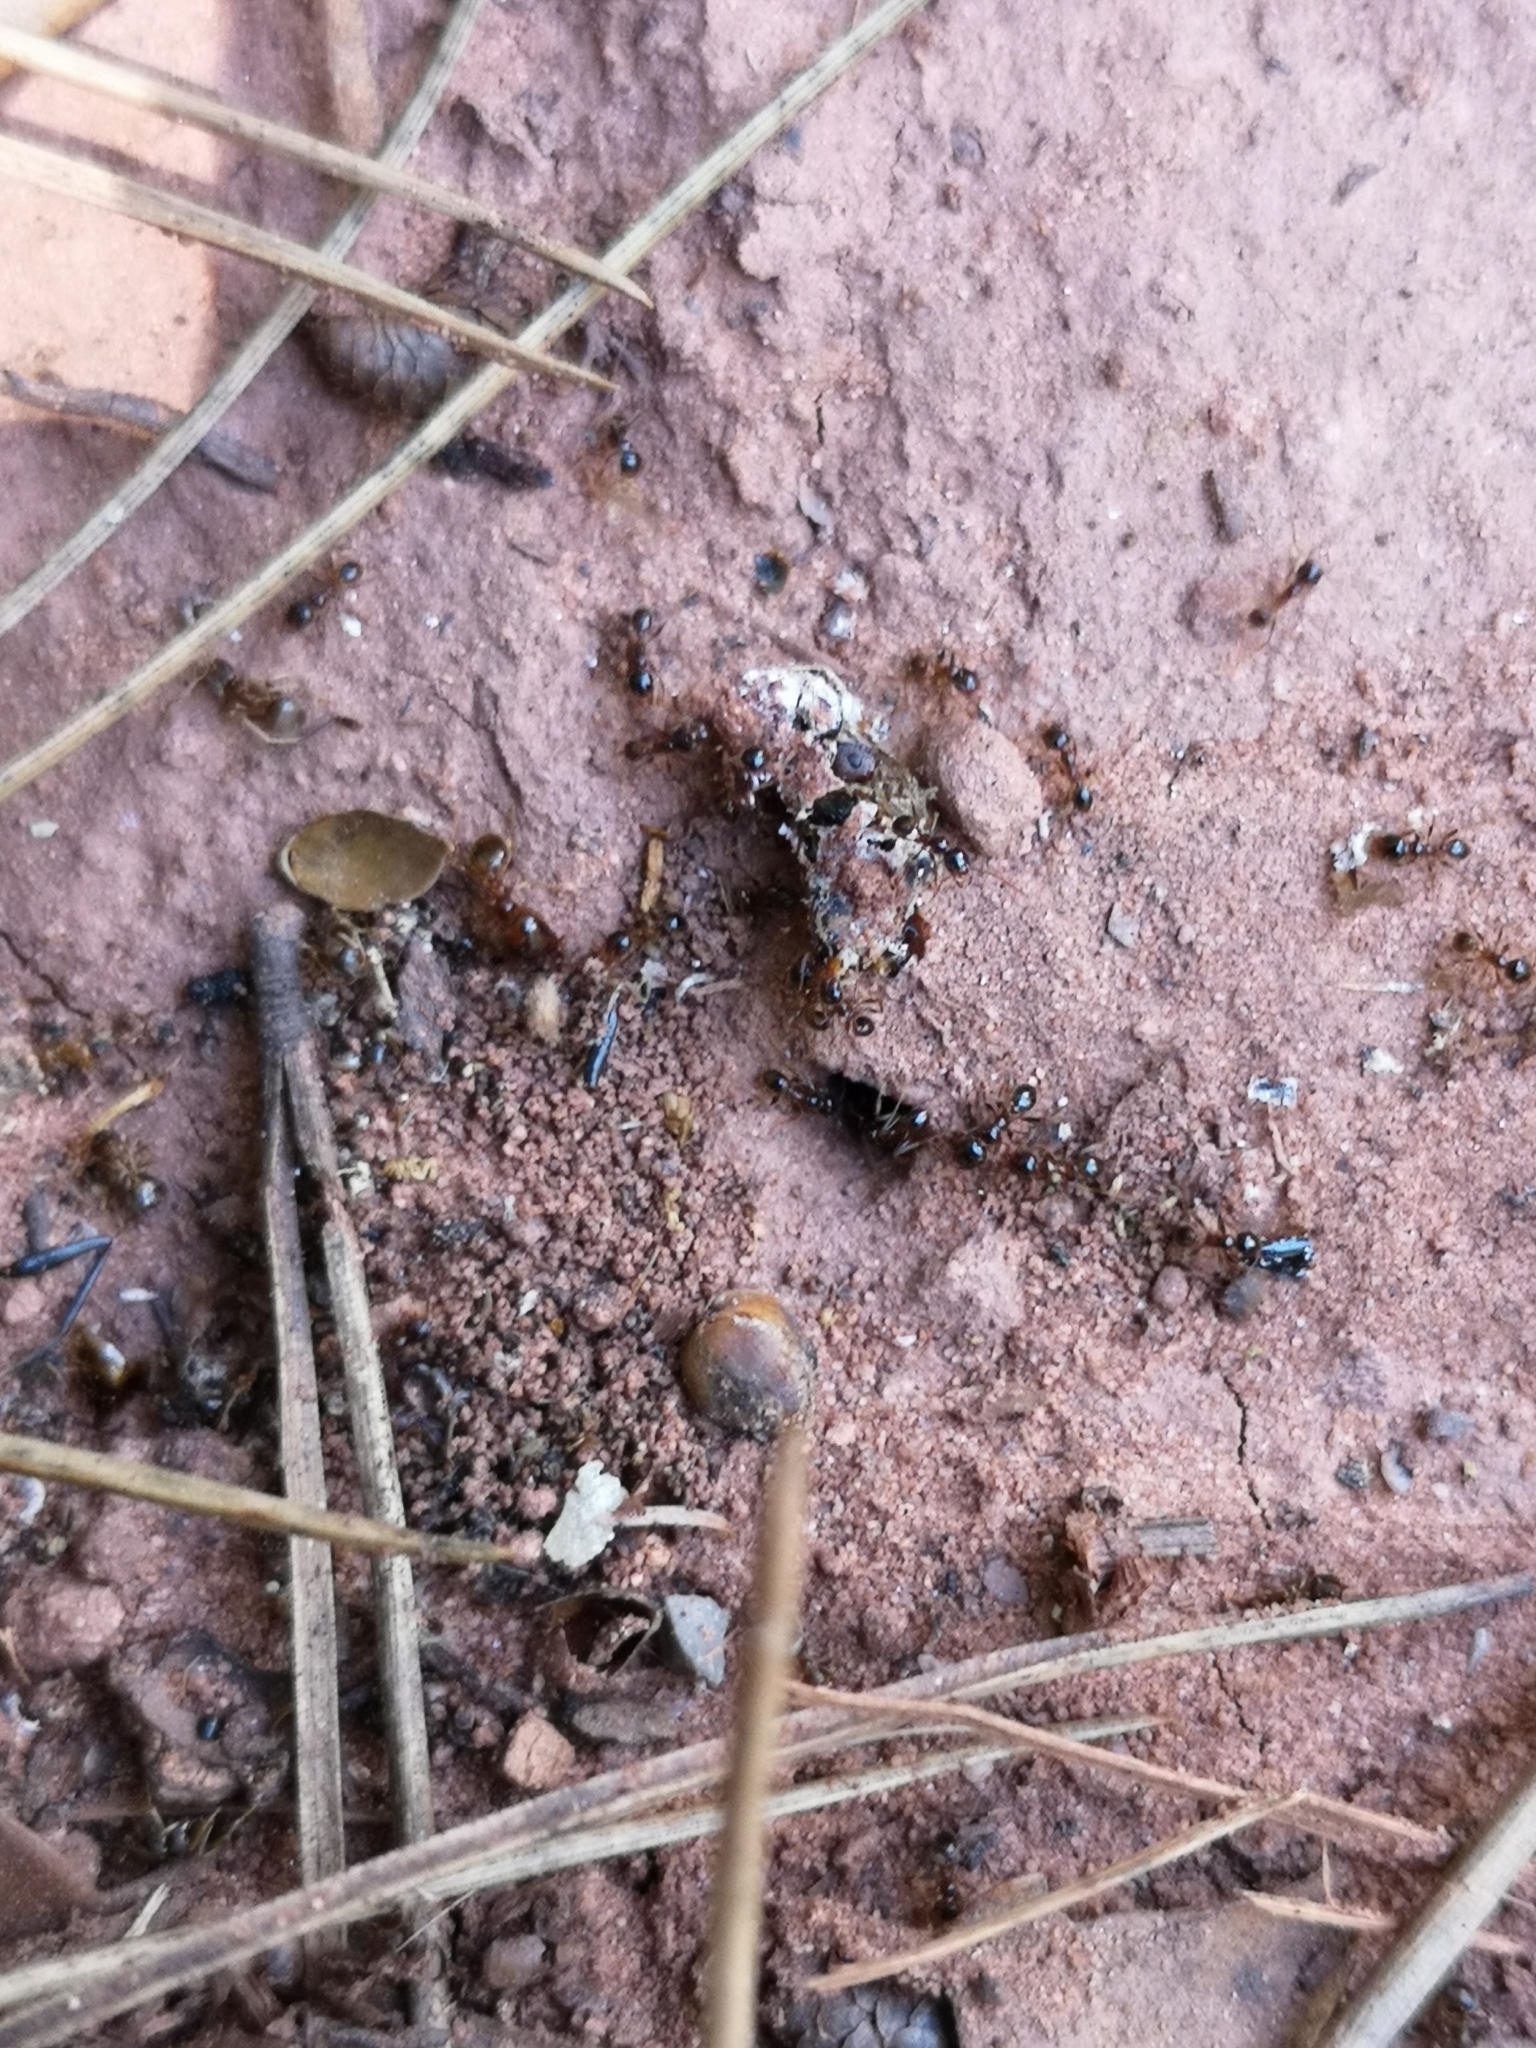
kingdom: Animalia
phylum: Arthropoda
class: Insecta
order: Hymenoptera
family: Formicidae
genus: Pheidole
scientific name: Pheidole pallidula
